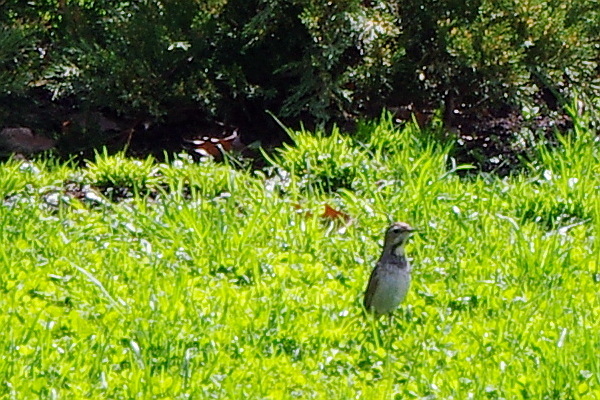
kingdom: Animalia
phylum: Chordata
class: Aves
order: Passeriformes
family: Muscicapidae
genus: Luscinia
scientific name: Luscinia svecica
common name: Bluethroat
